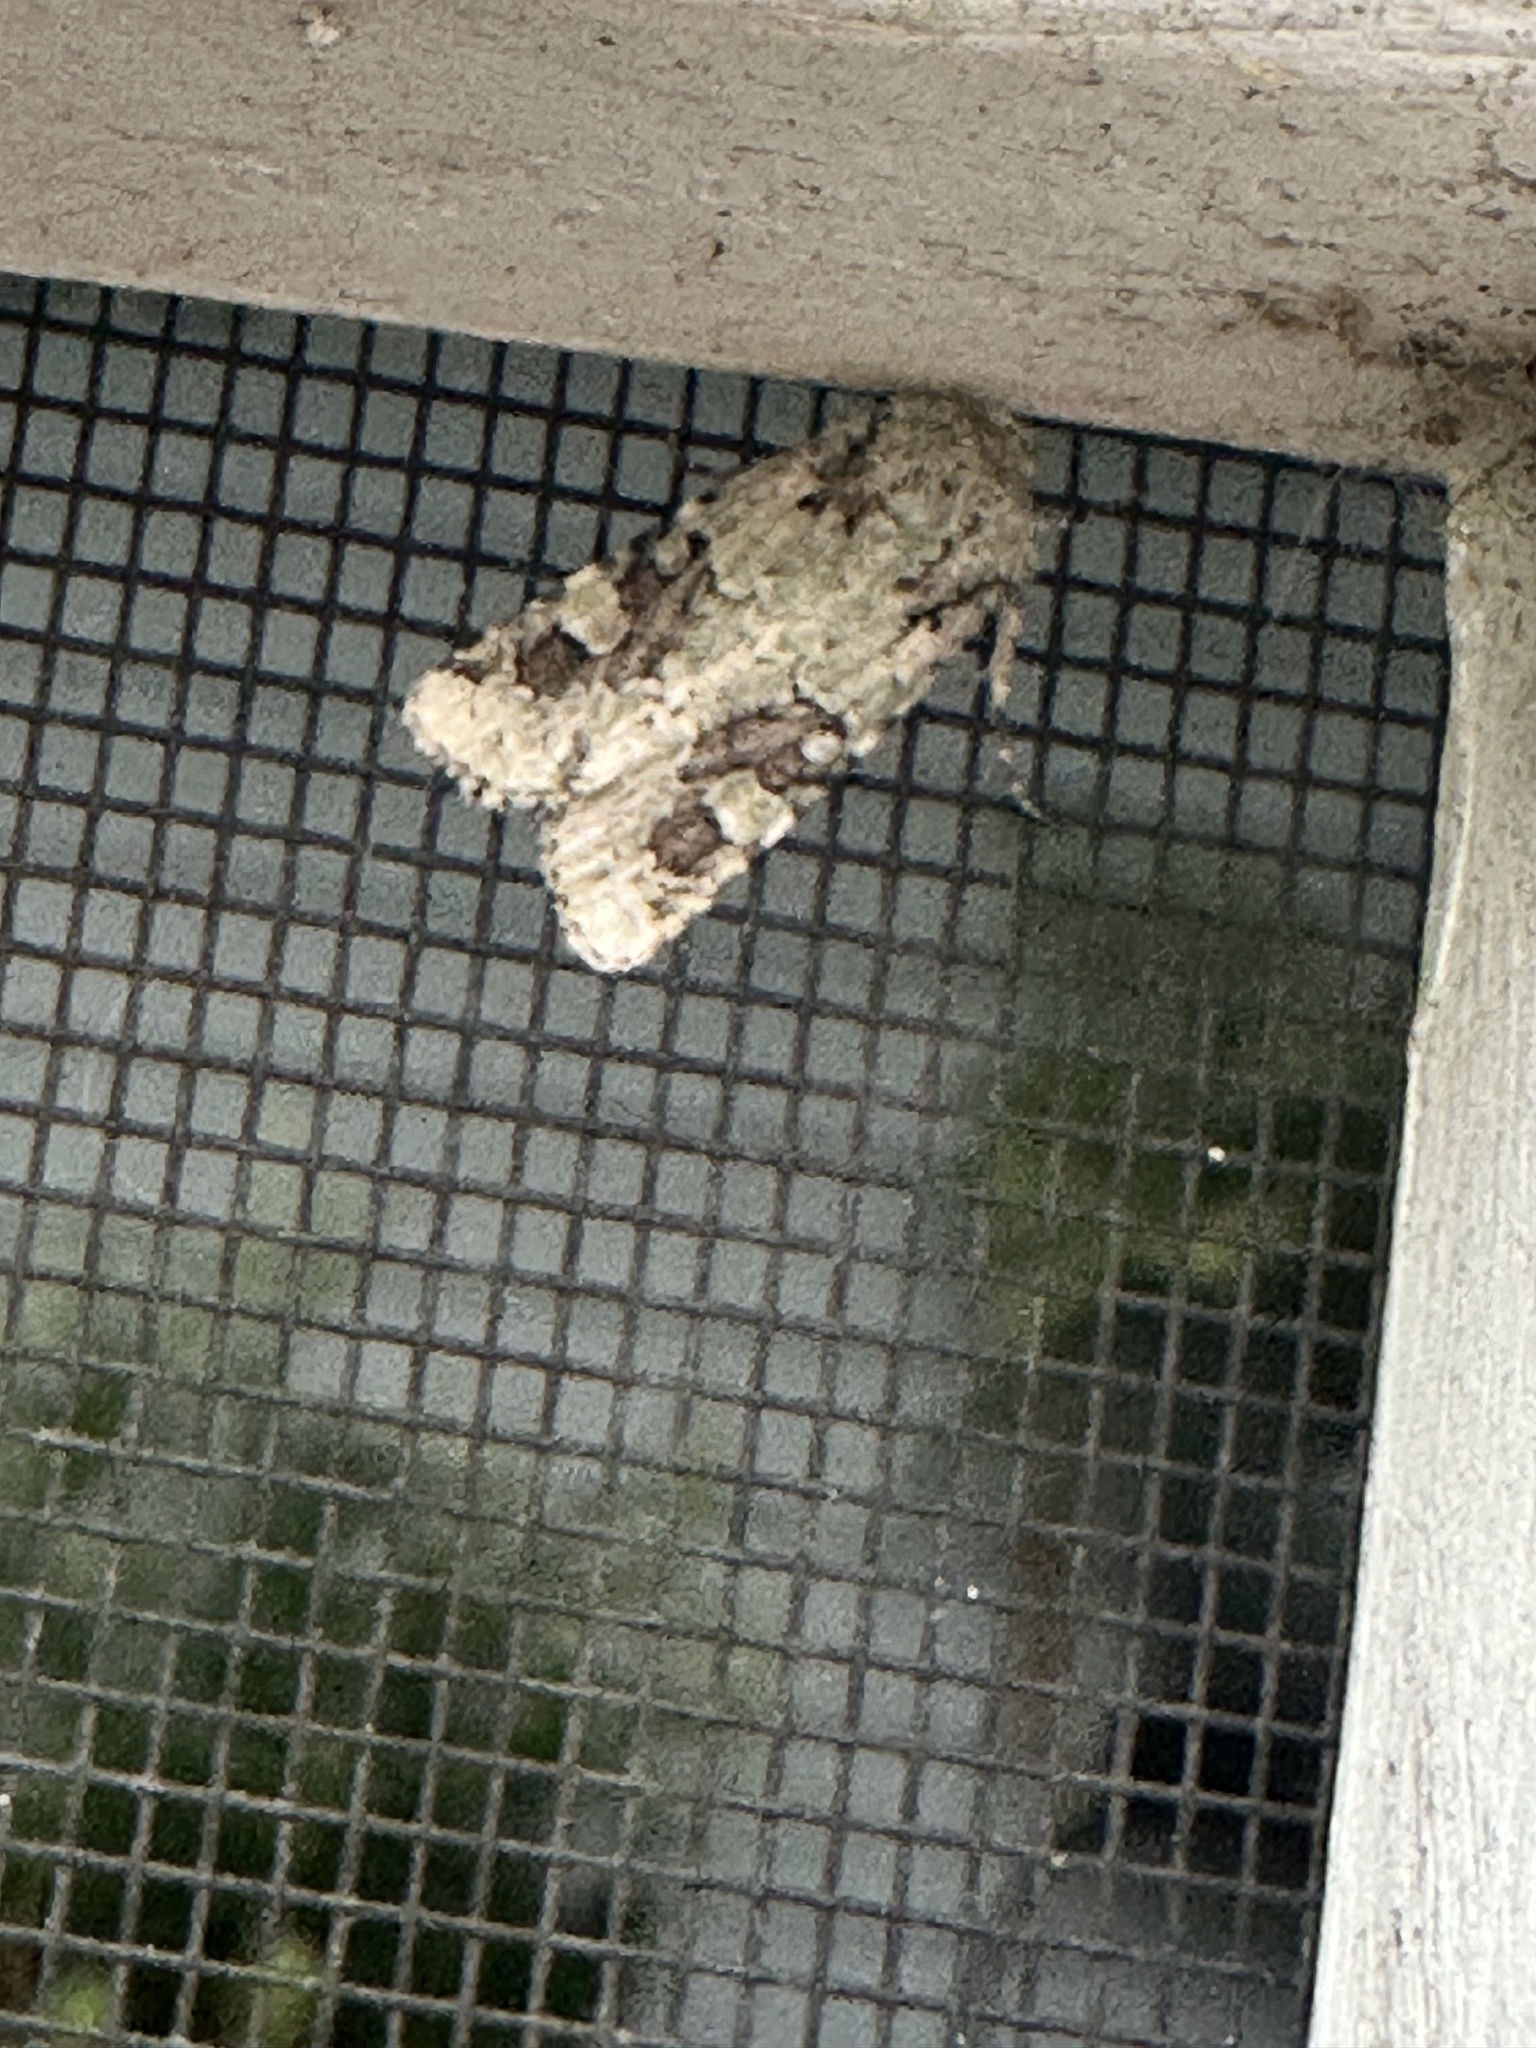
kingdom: Animalia
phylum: Arthropoda
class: Insecta
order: Lepidoptera
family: Noctuidae
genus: Lacinipolia
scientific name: Lacinipolia laudabilis
